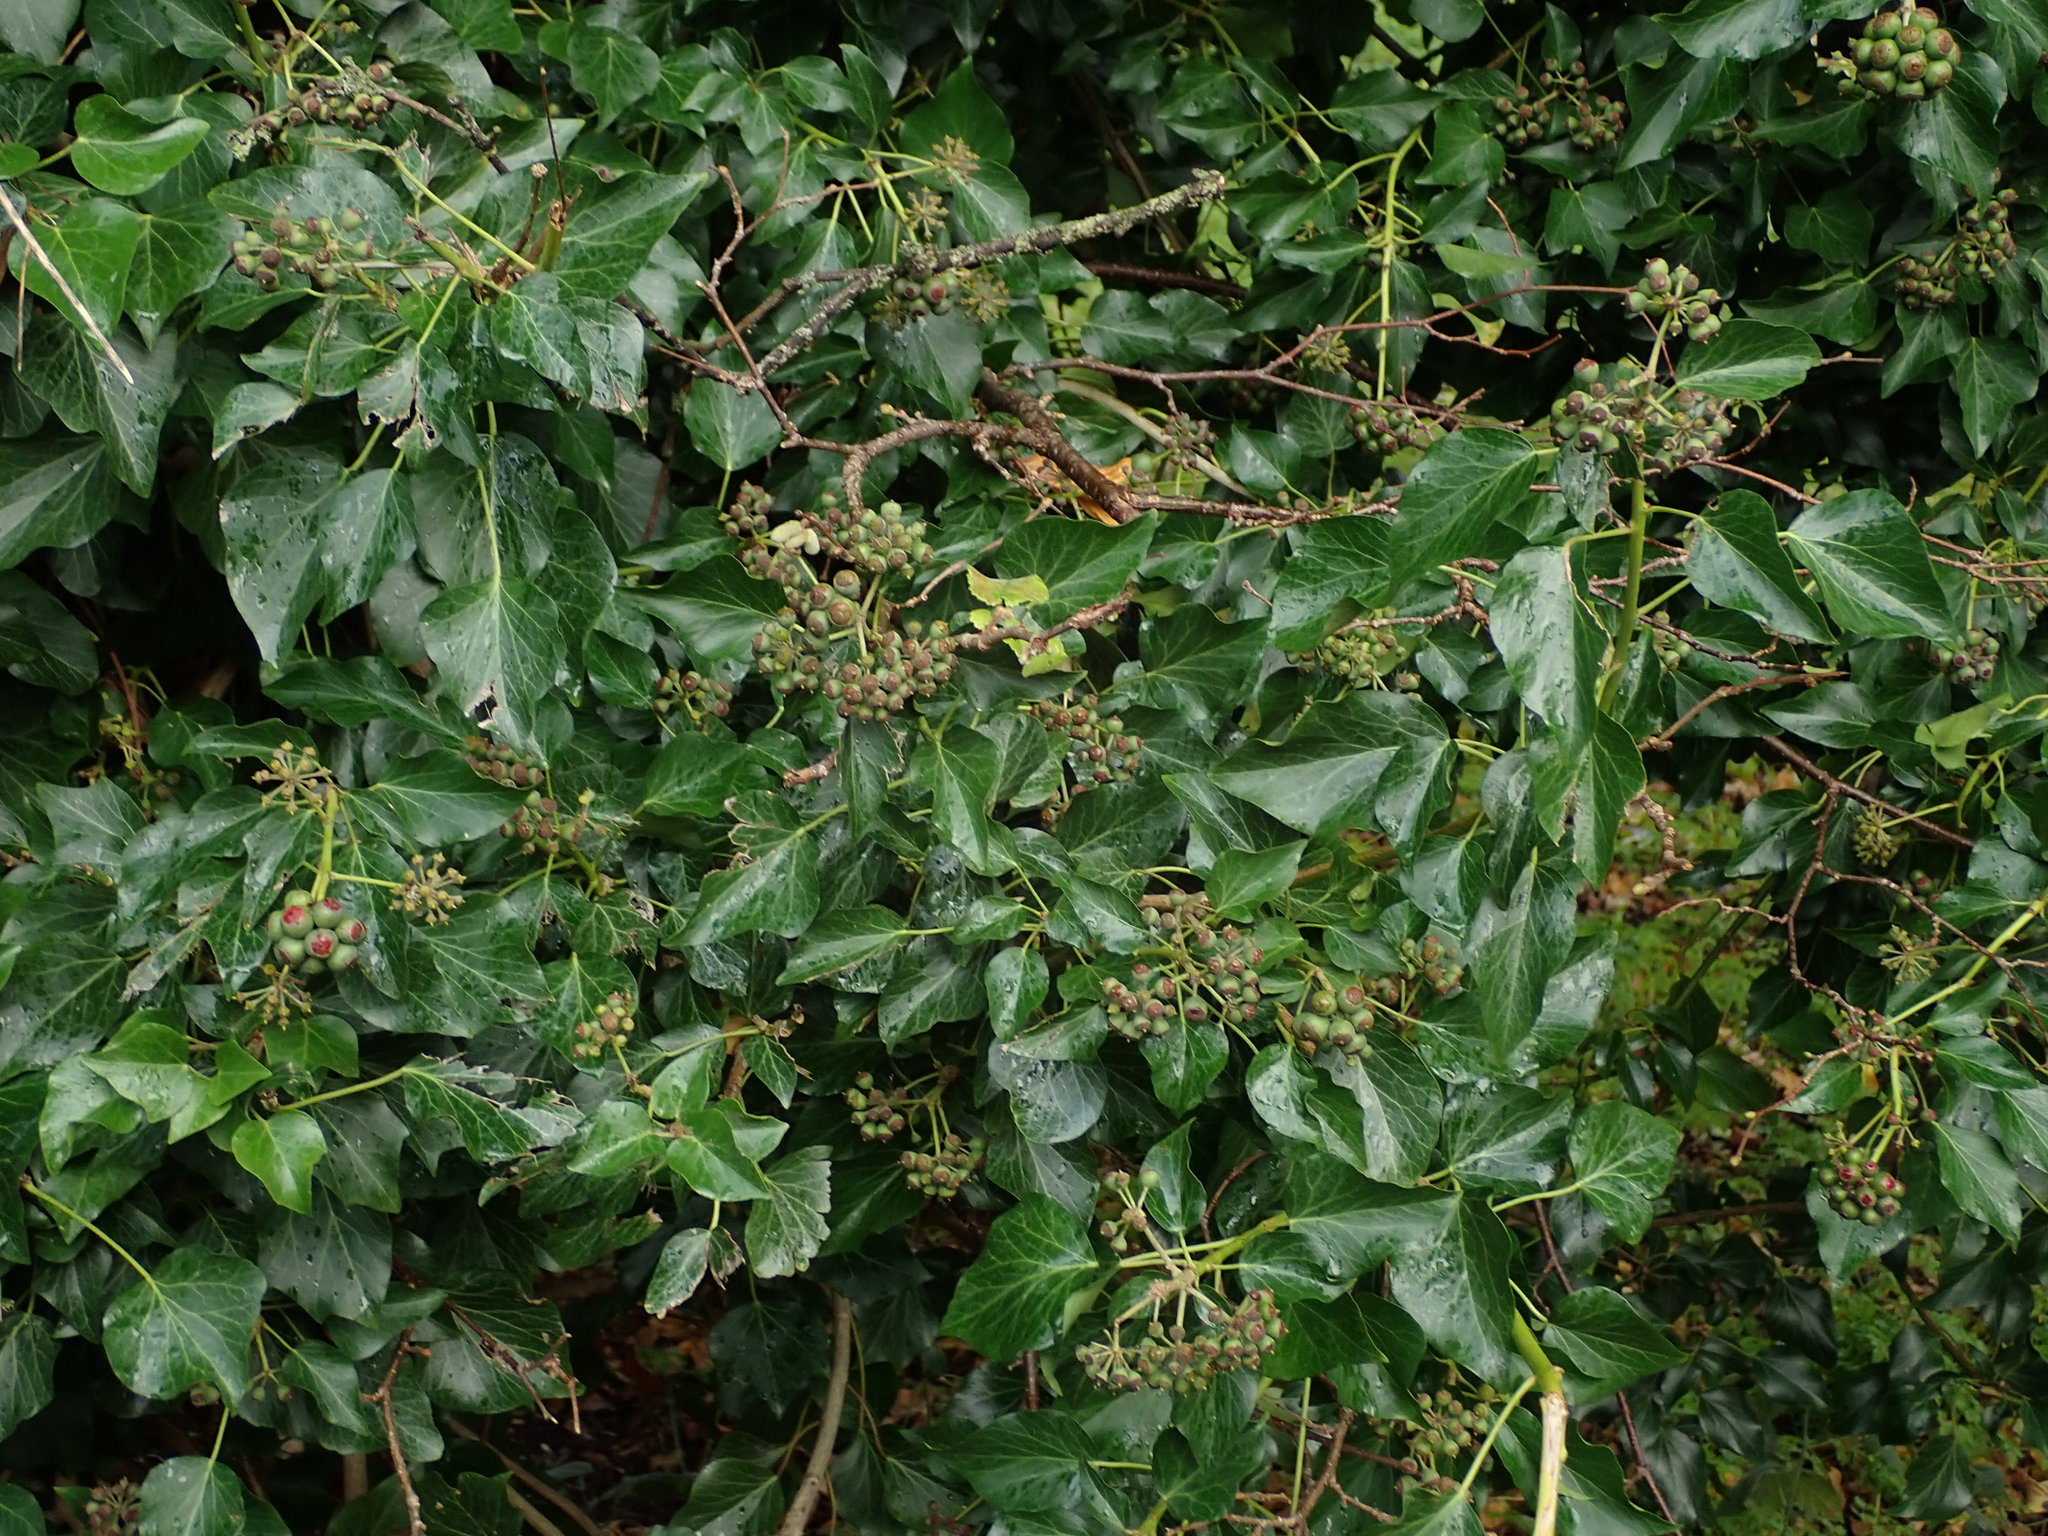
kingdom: Plantae
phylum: Tracheophyta
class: Magnoliopsida
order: Apiales
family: Araliaceae
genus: Hedera
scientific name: Hedera helix
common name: Ivy
